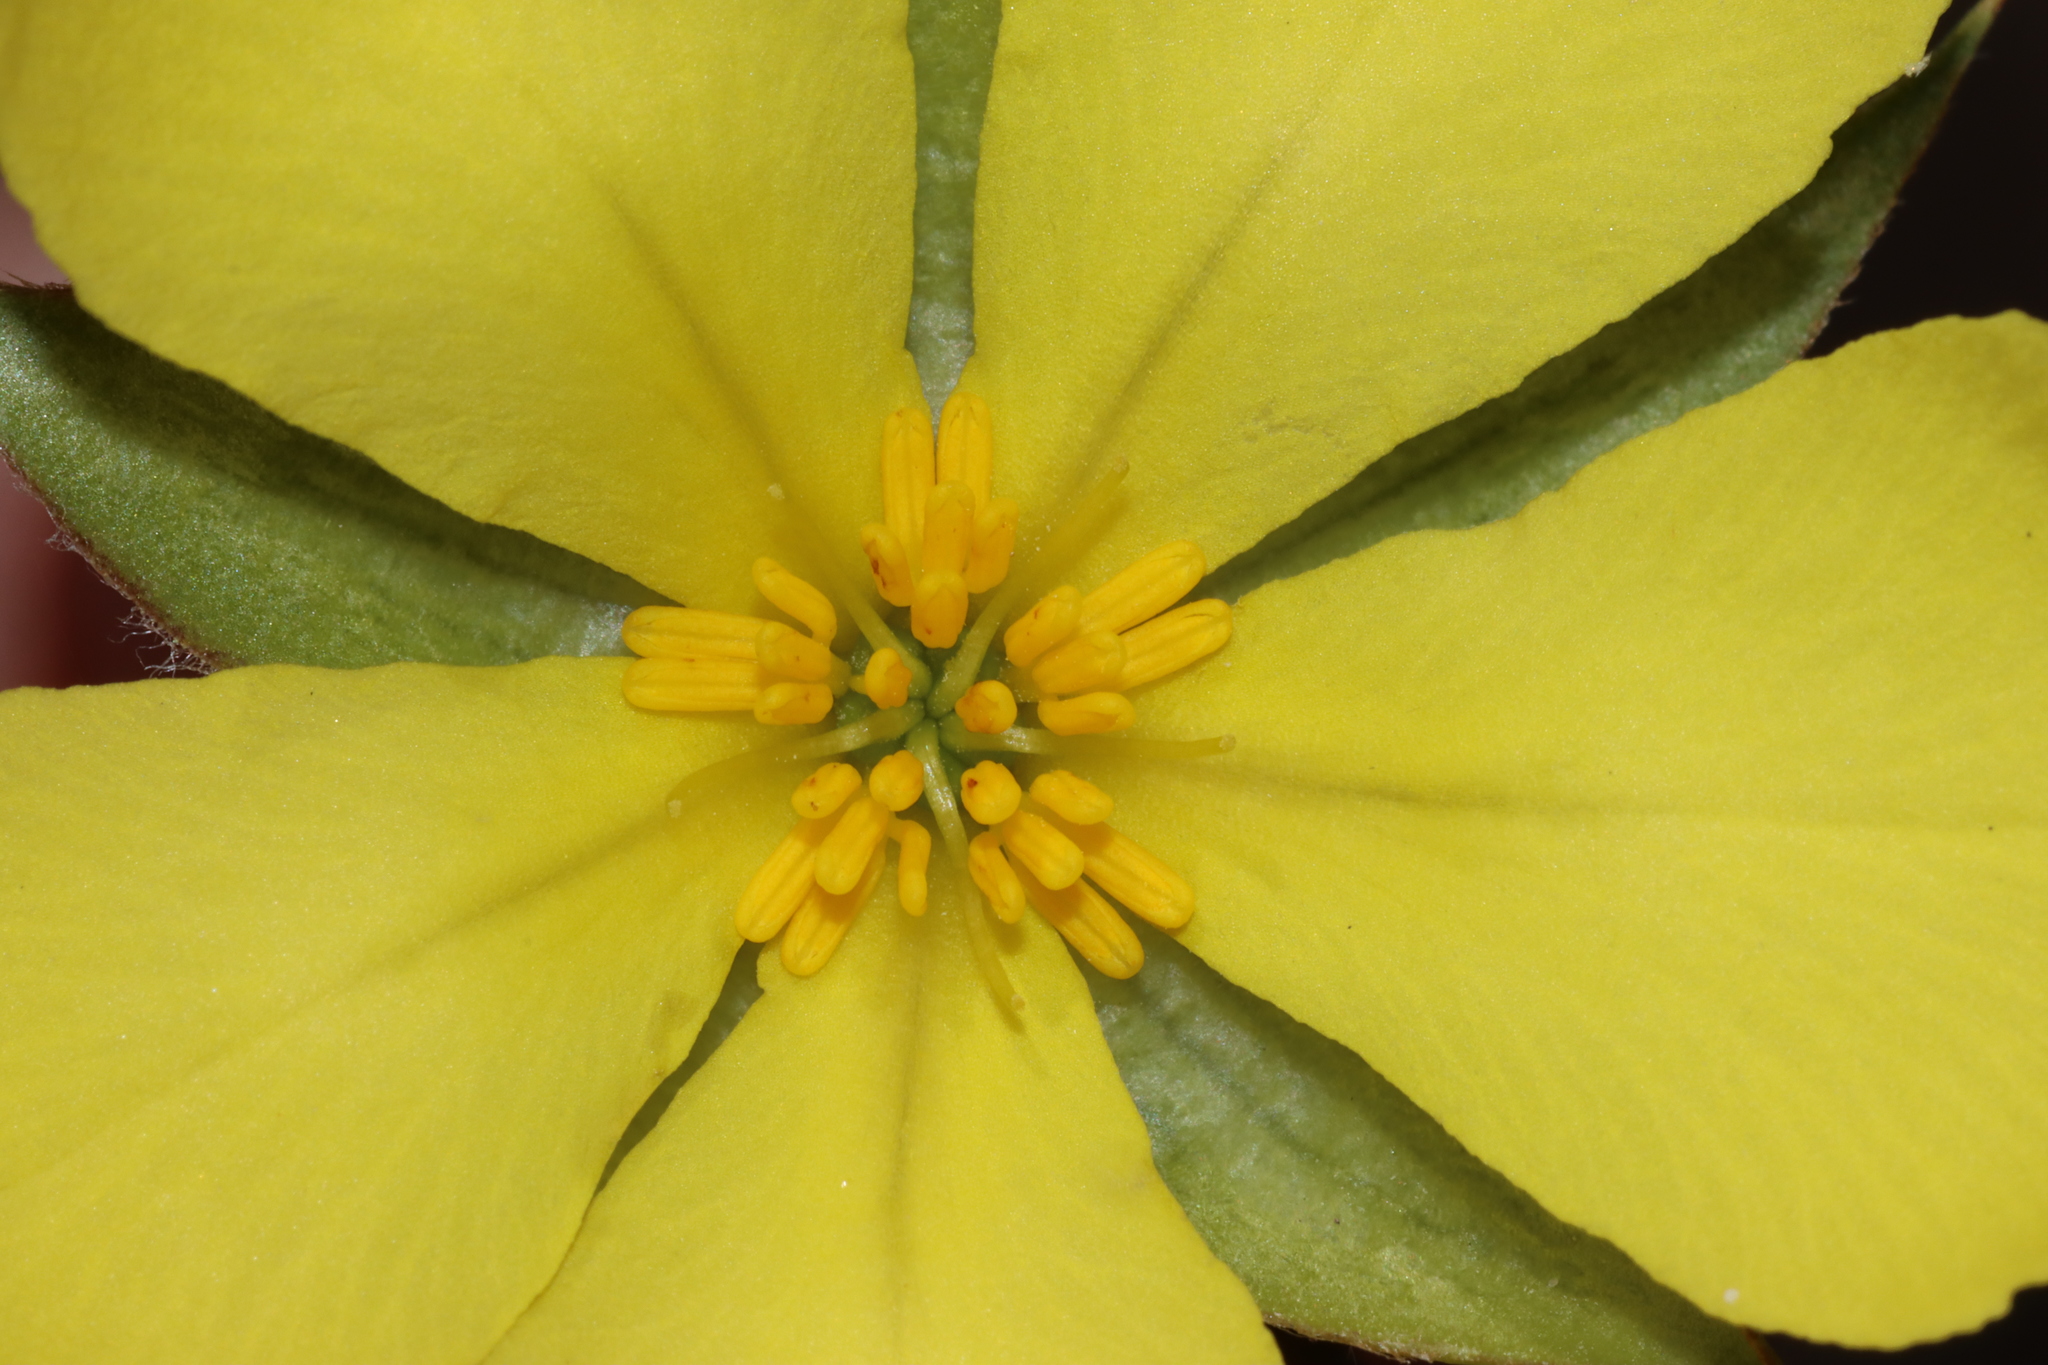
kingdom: Plantae
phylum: Tracheophyta
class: Magnoliopsida
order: Dilleniales
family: Dilleniaceae
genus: Hibbertia
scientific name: Hibbertia striata
